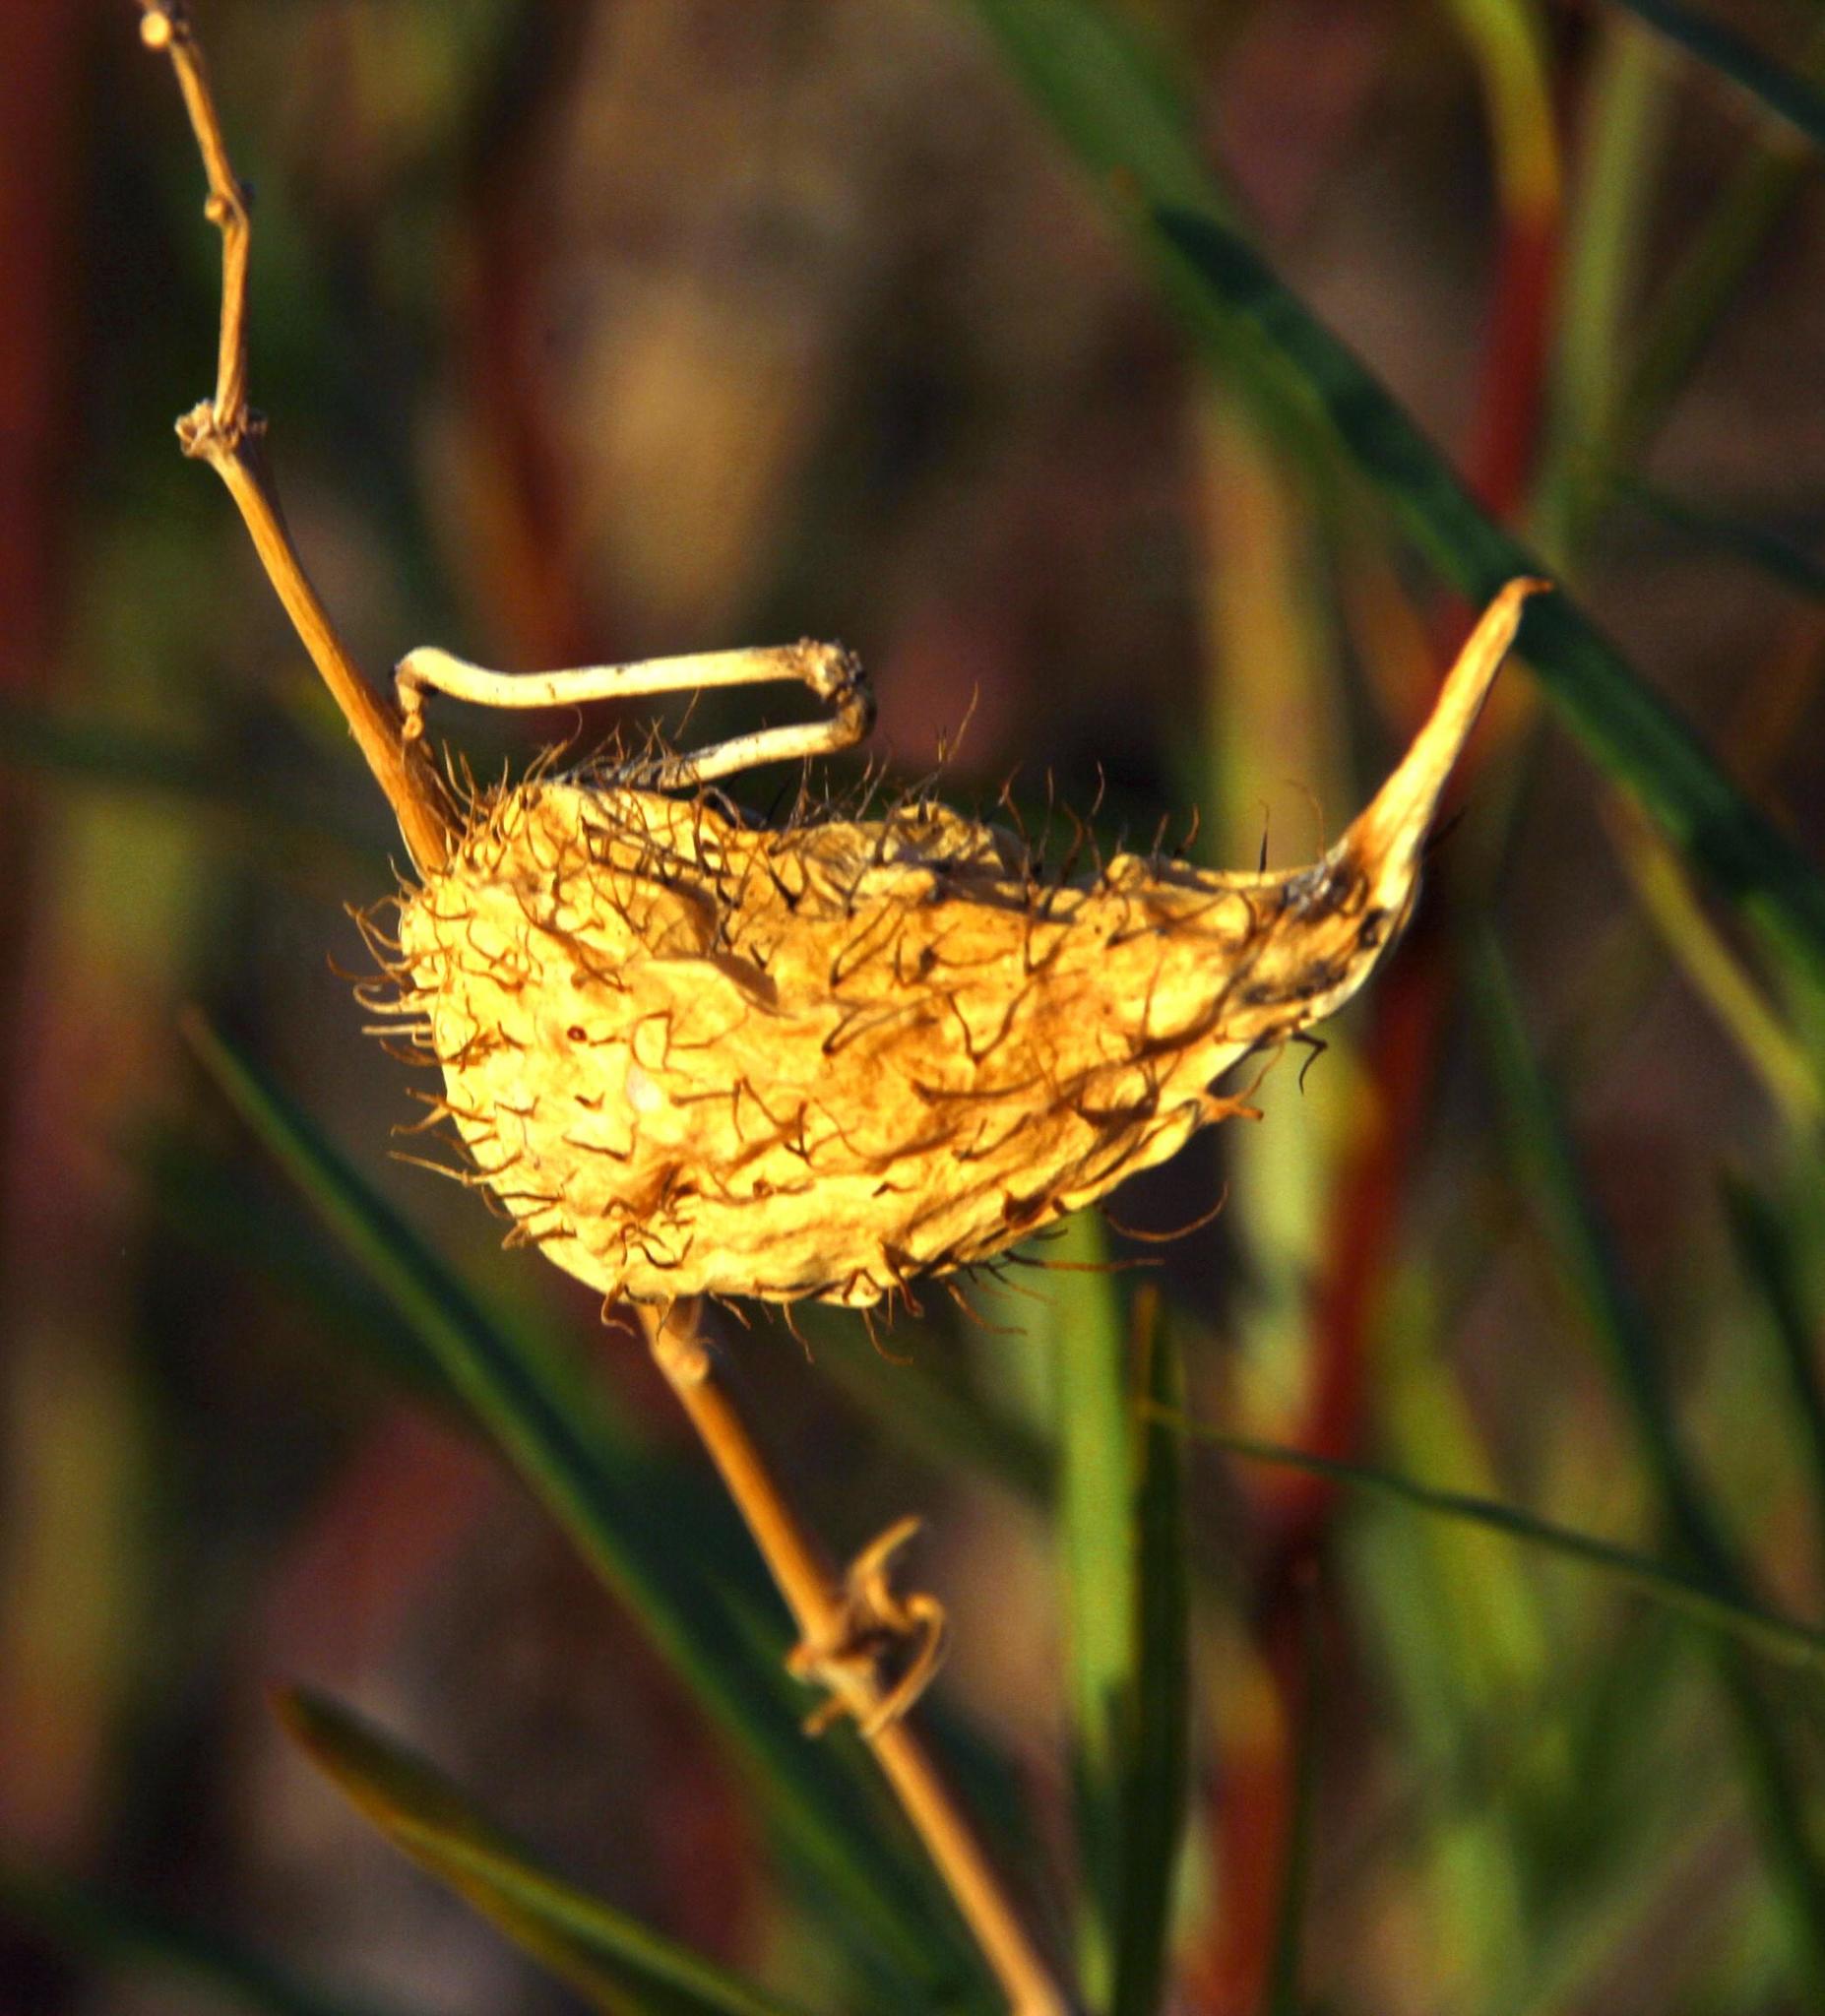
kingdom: Plantae
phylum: Tracheophyta
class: Magnoliopsida
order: Gentianales
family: Apocynaceae
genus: Gomphocarpus
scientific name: Gomphocarpus fruticosus
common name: Milkweed
